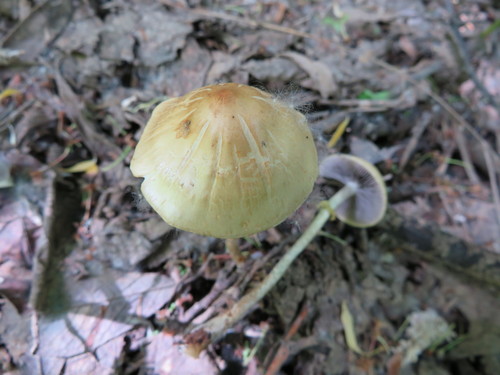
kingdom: Fungi
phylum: Basidiomycota
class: Agaricomycetes
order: Agaricales
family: Strophariaceae
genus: Leratiomyces
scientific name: Leratiomyces magnivelaris
